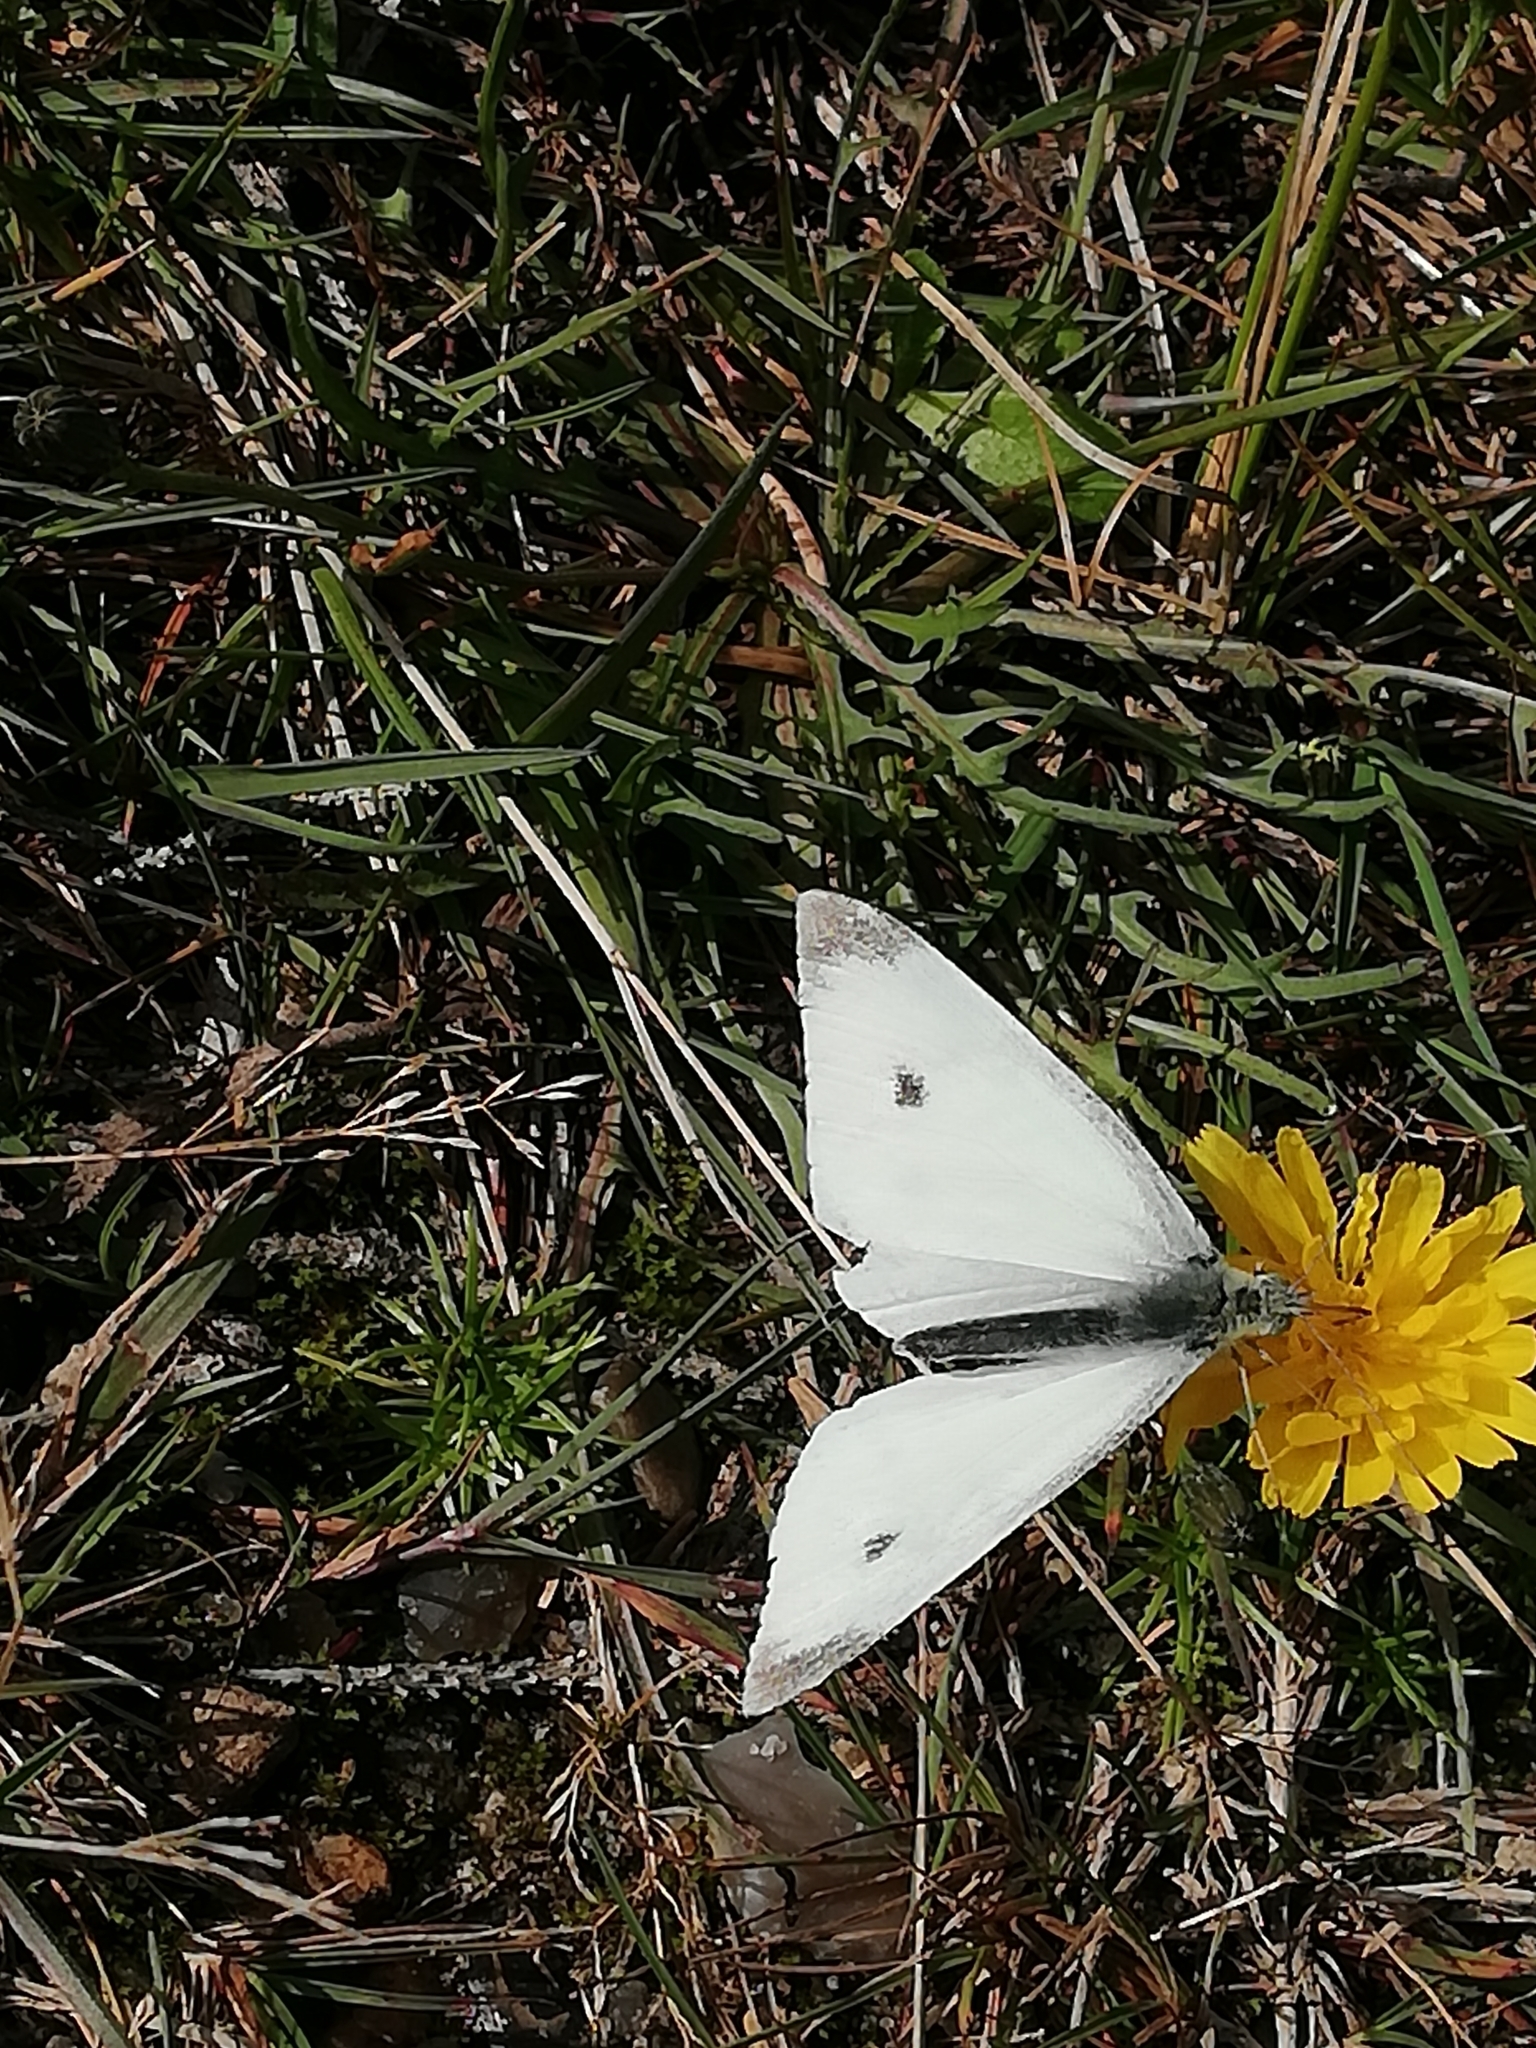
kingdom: Animalia
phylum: Arthropoda
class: Insecta
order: Lepidoptera
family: Pieridae
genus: Pieris
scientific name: Pieris rapae
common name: Small white
